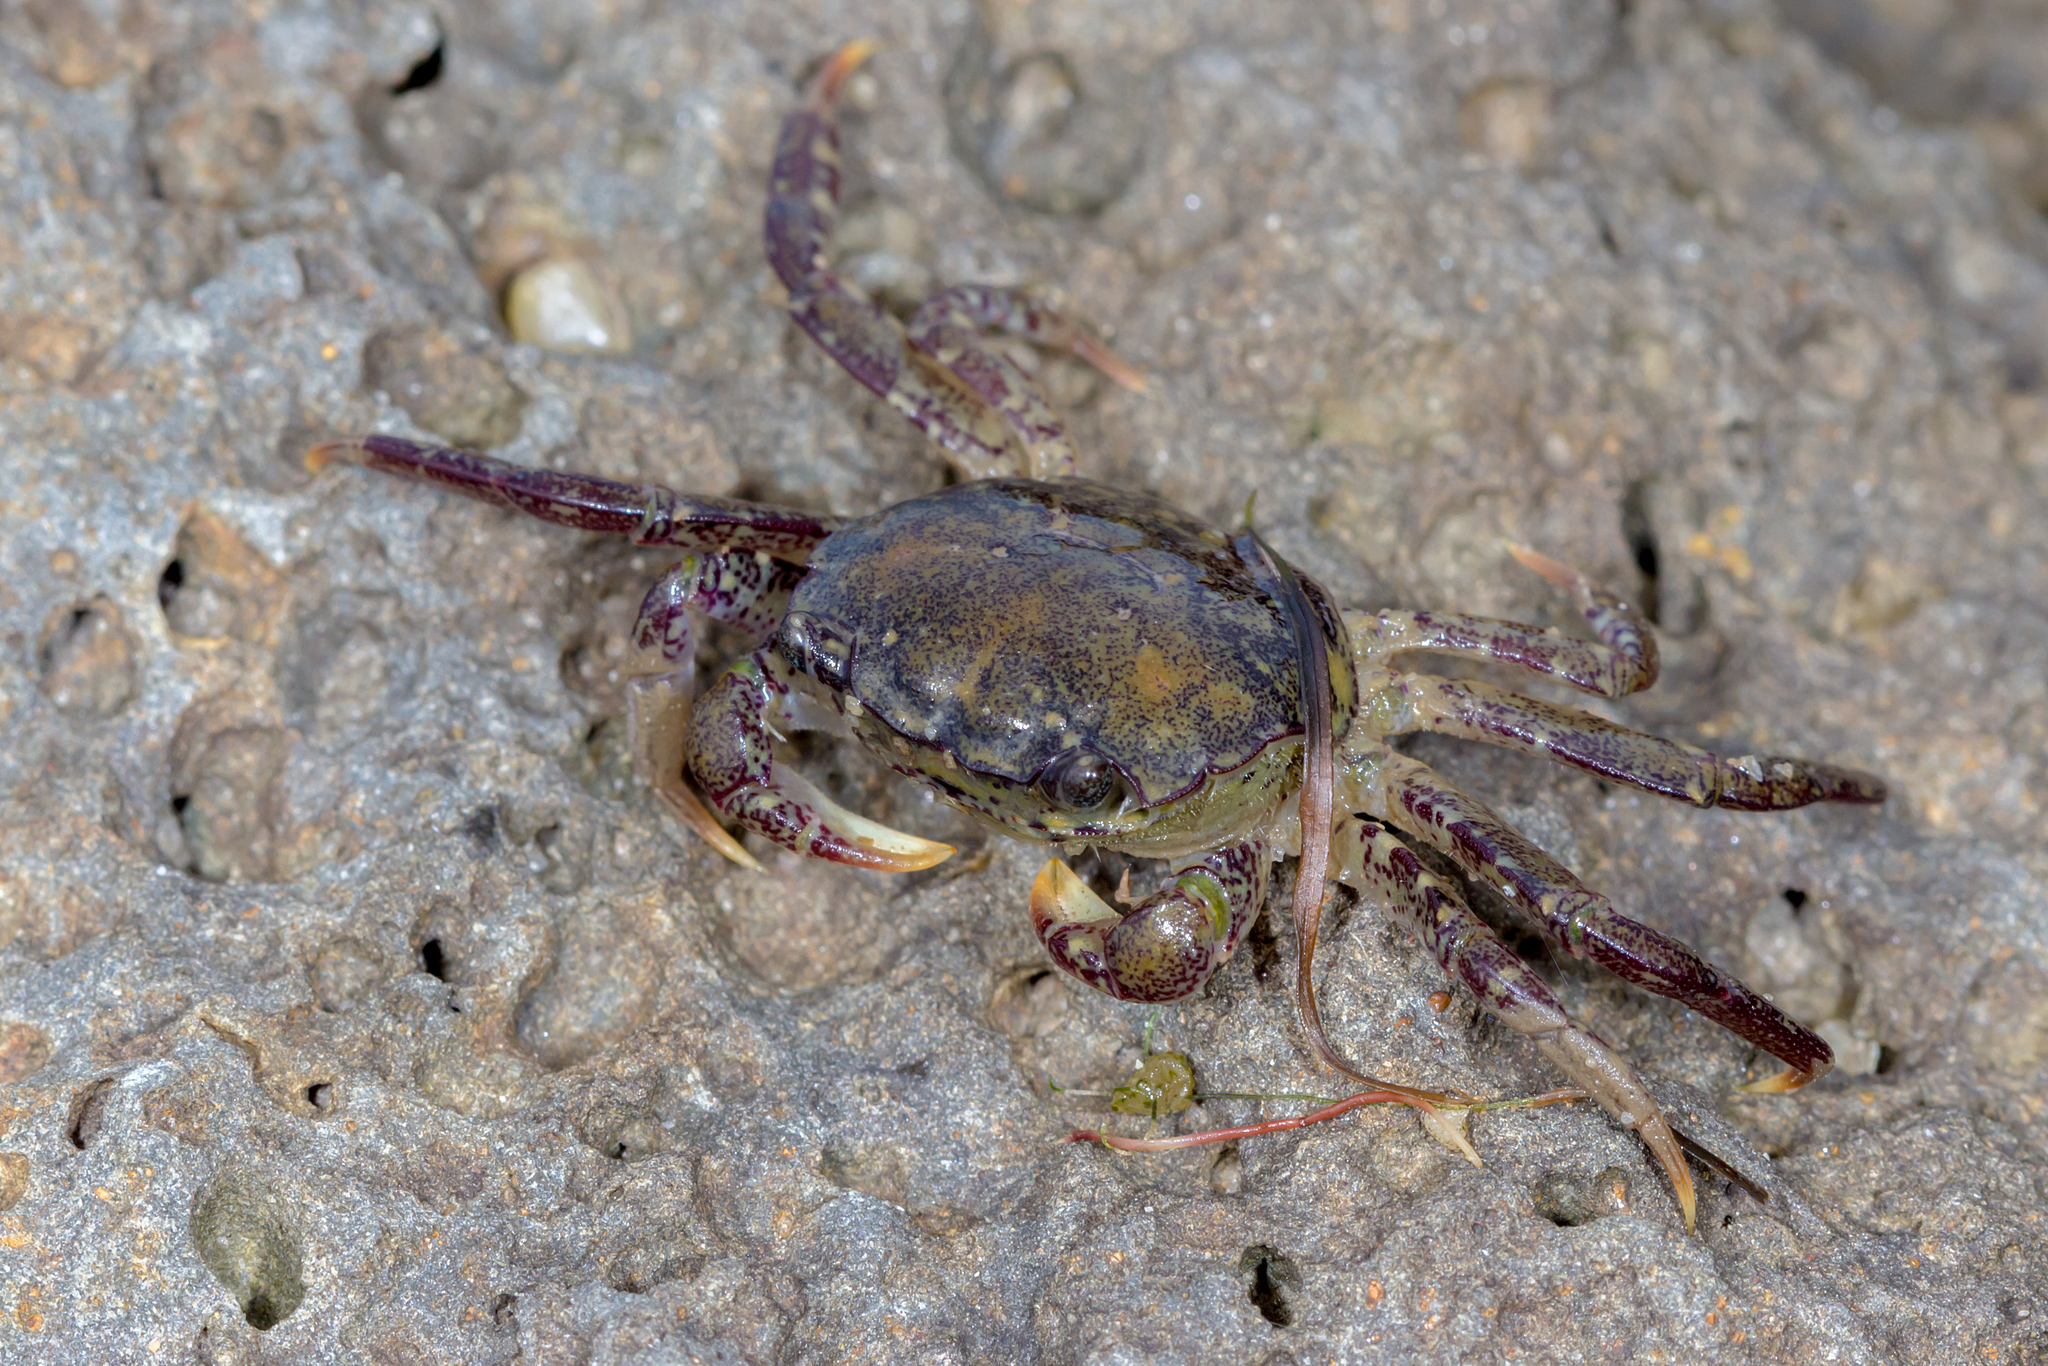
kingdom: Animalia
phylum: Arthropoda
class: Malacostraca
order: Decapoda
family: Varunidae
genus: Paragrapsus
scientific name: Paragrapsus laevis
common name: Smooth shore crab
